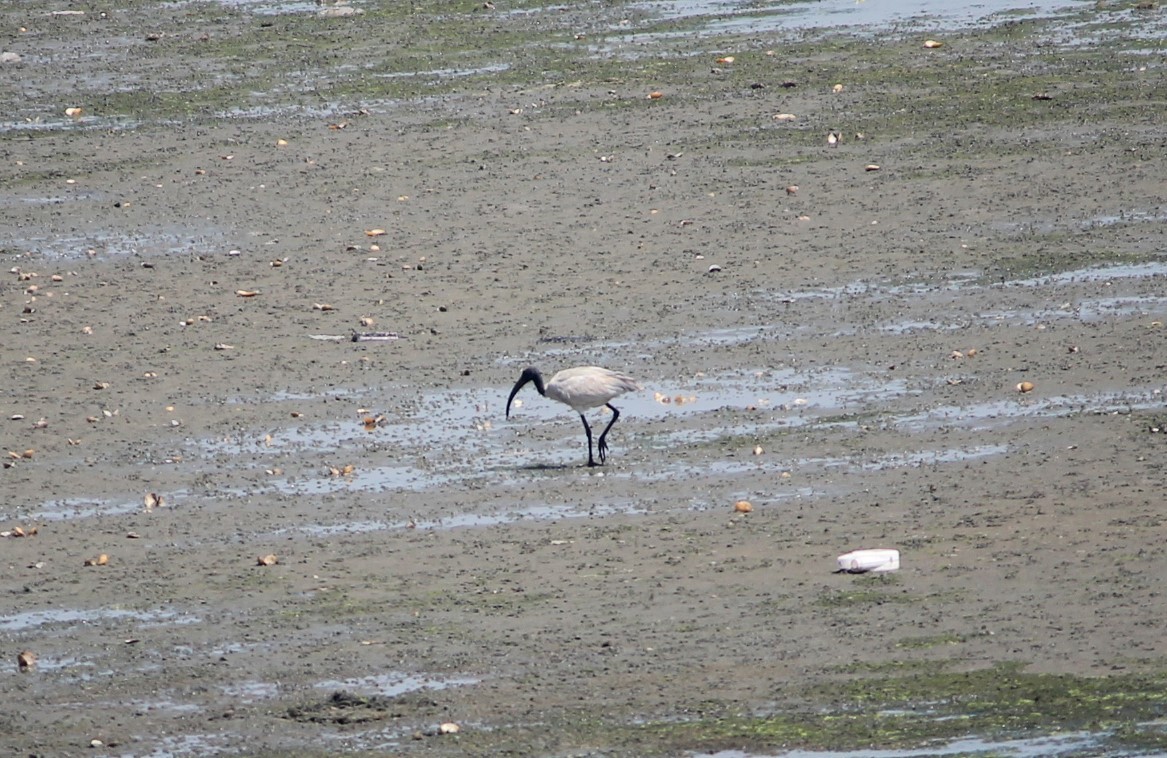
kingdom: Animalia
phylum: Chordata
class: Aves
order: Pelecaniformes
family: Threskiornithidae
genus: Threskiornis
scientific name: Threskiornis melanocephalus
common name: Black-headed ibis
